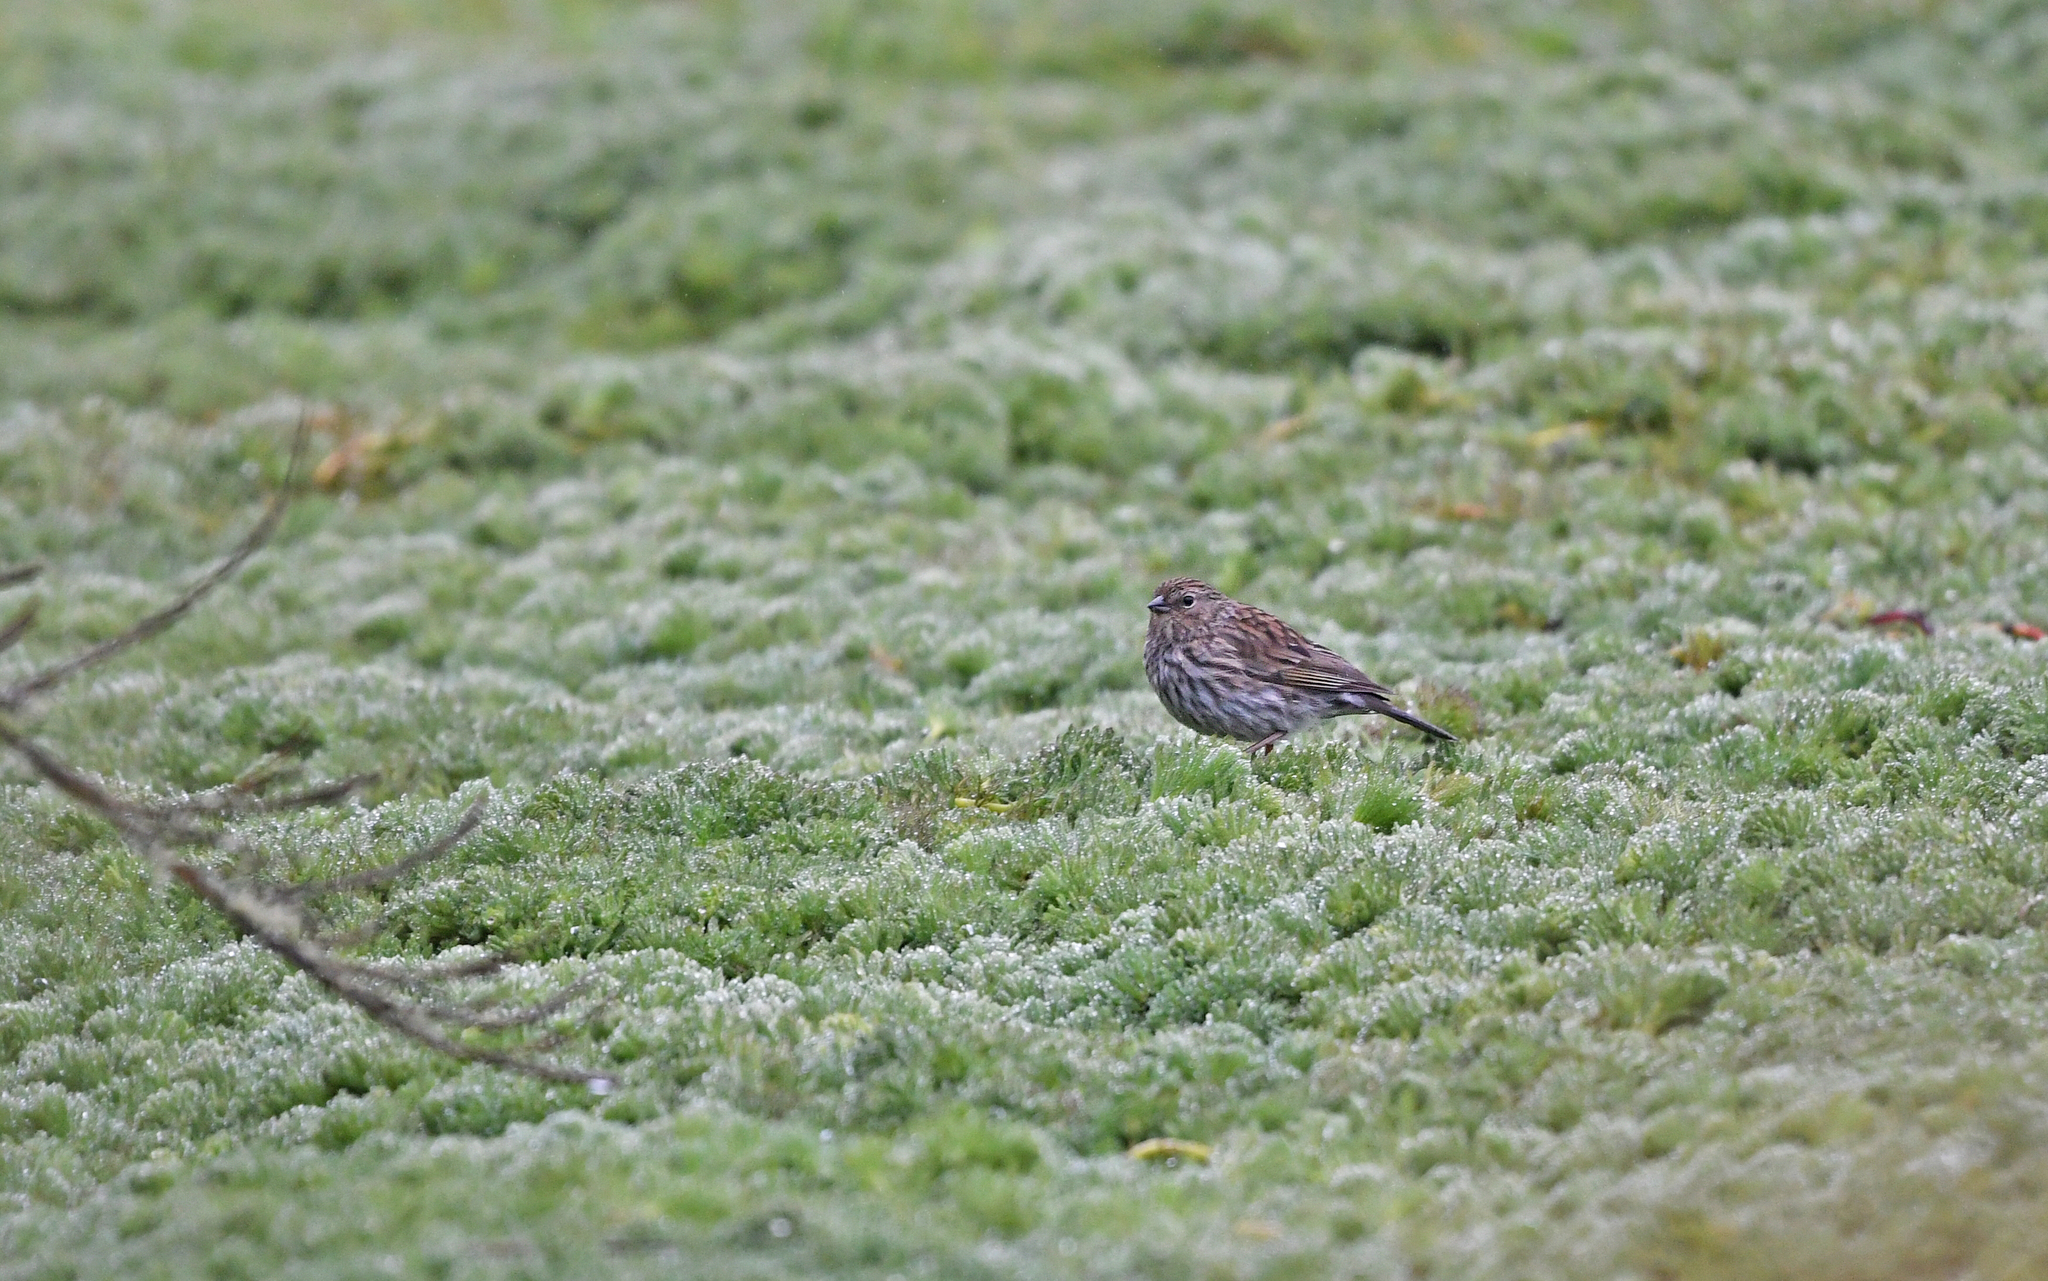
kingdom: Animalia
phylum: Chordata
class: Aves
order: Passeriformes
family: Thraupidae
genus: Geospizopsis
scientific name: Geospizopsis unicolor
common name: Plumbeous sierra-finch
